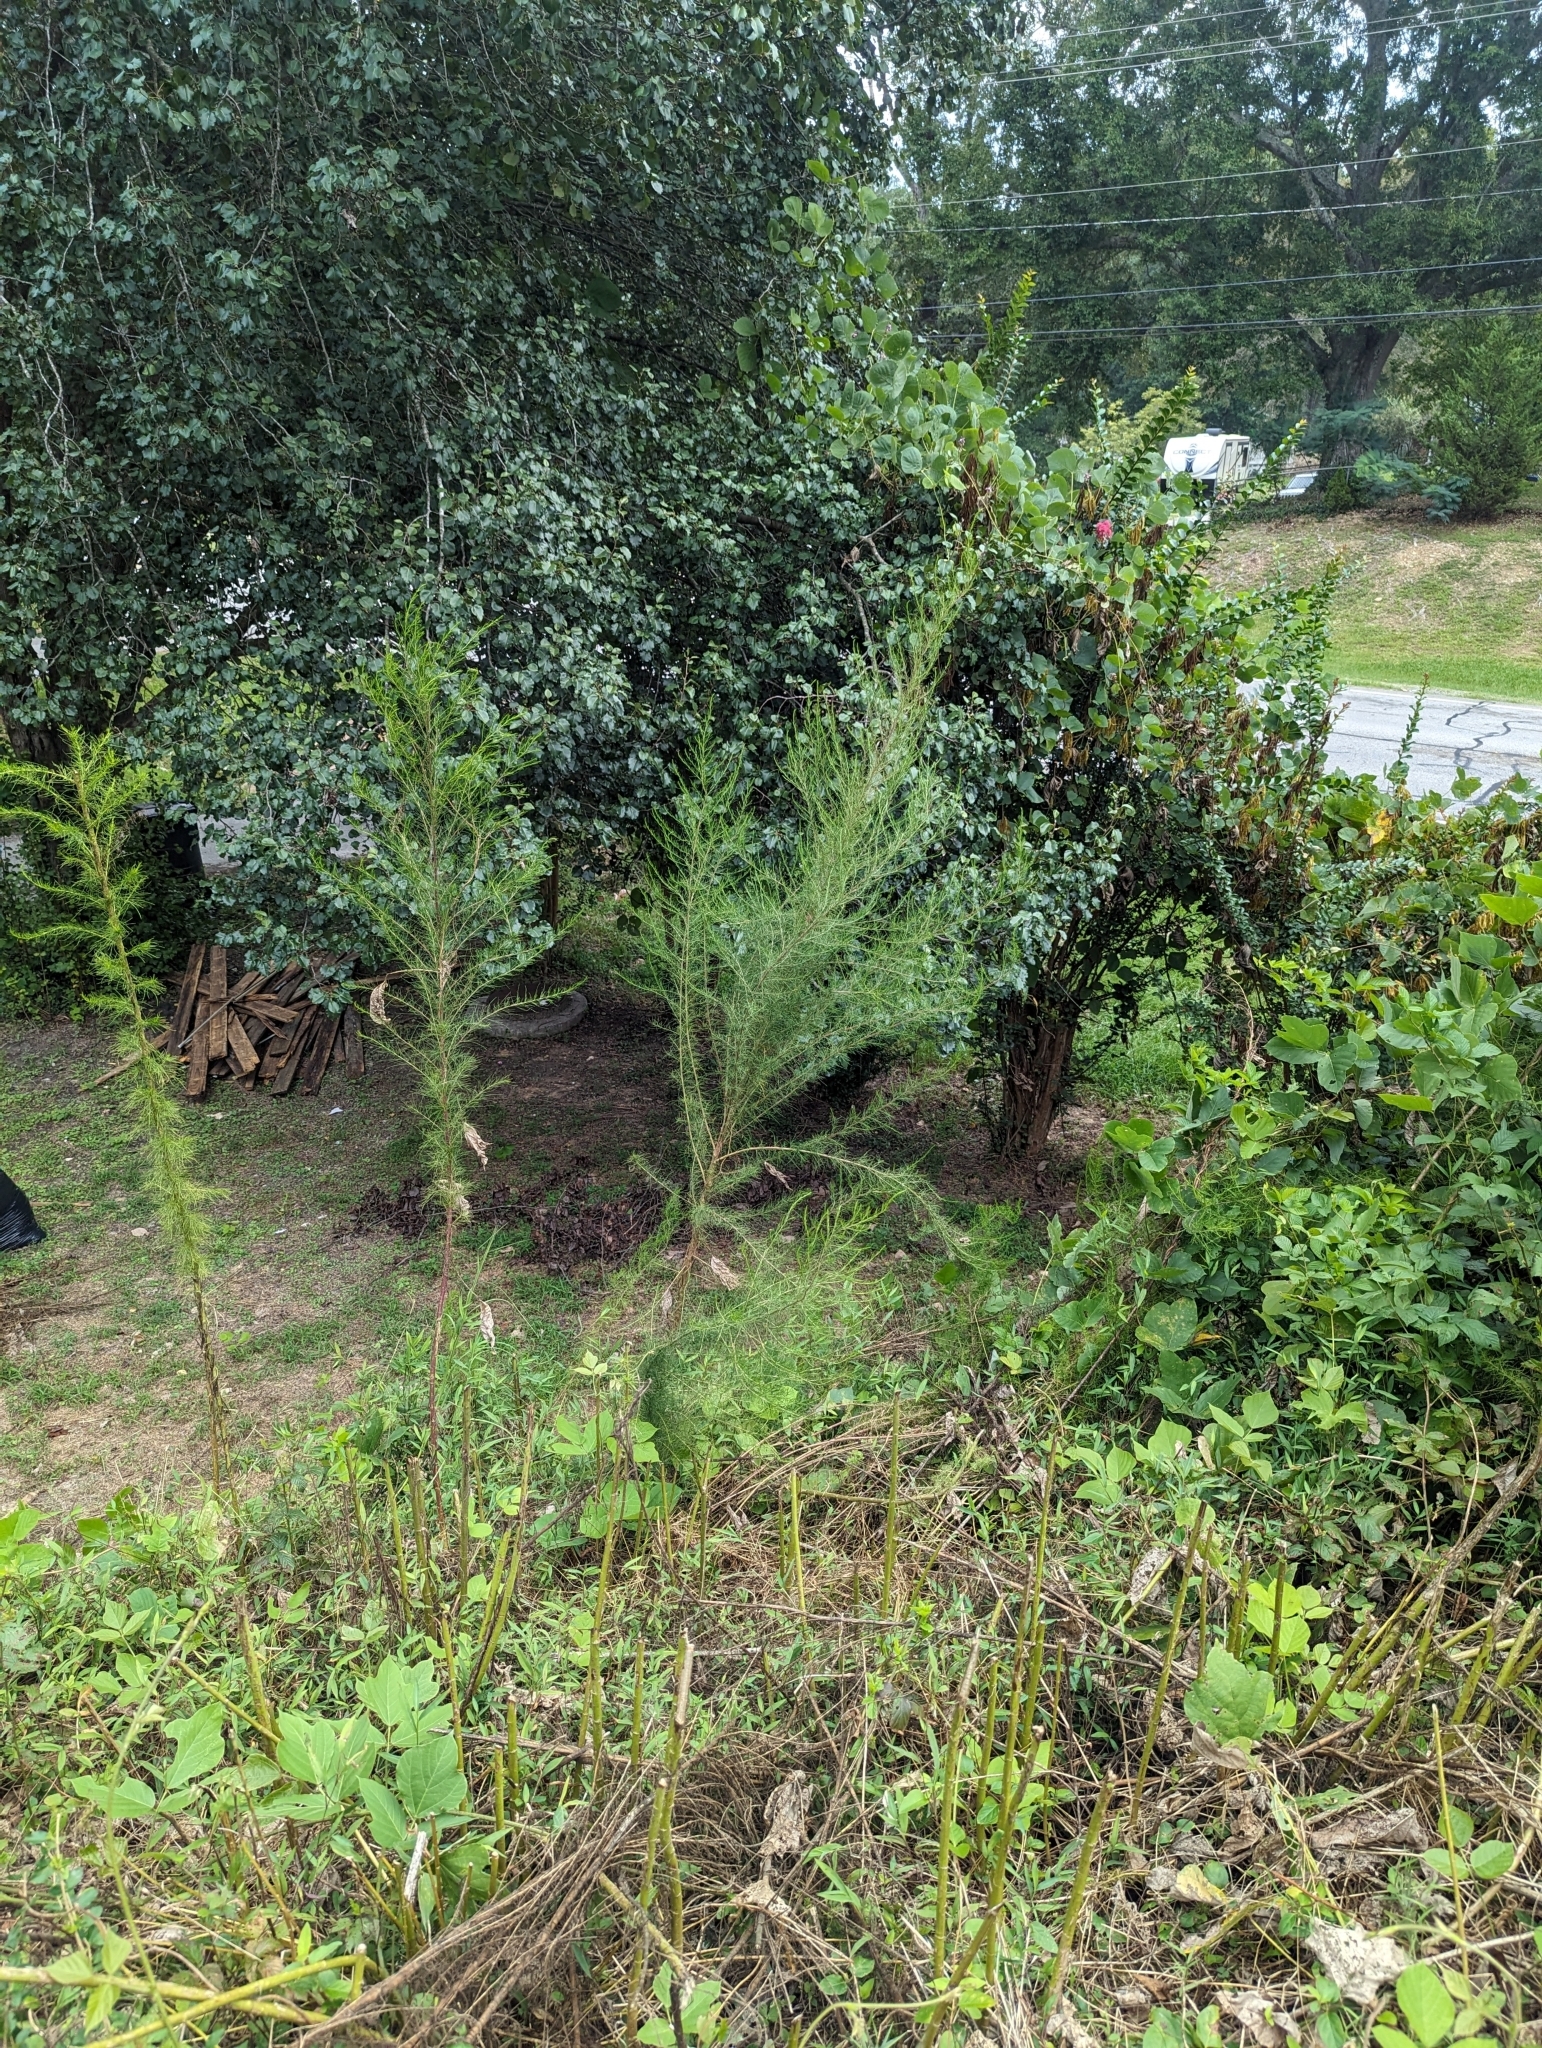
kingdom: Plantae
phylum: Tracheophyta
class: Magnoliopsida
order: Asterales
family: Asteraceae
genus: Eupatorium
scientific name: Eupatorium capillifolium
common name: Dog-fennel
